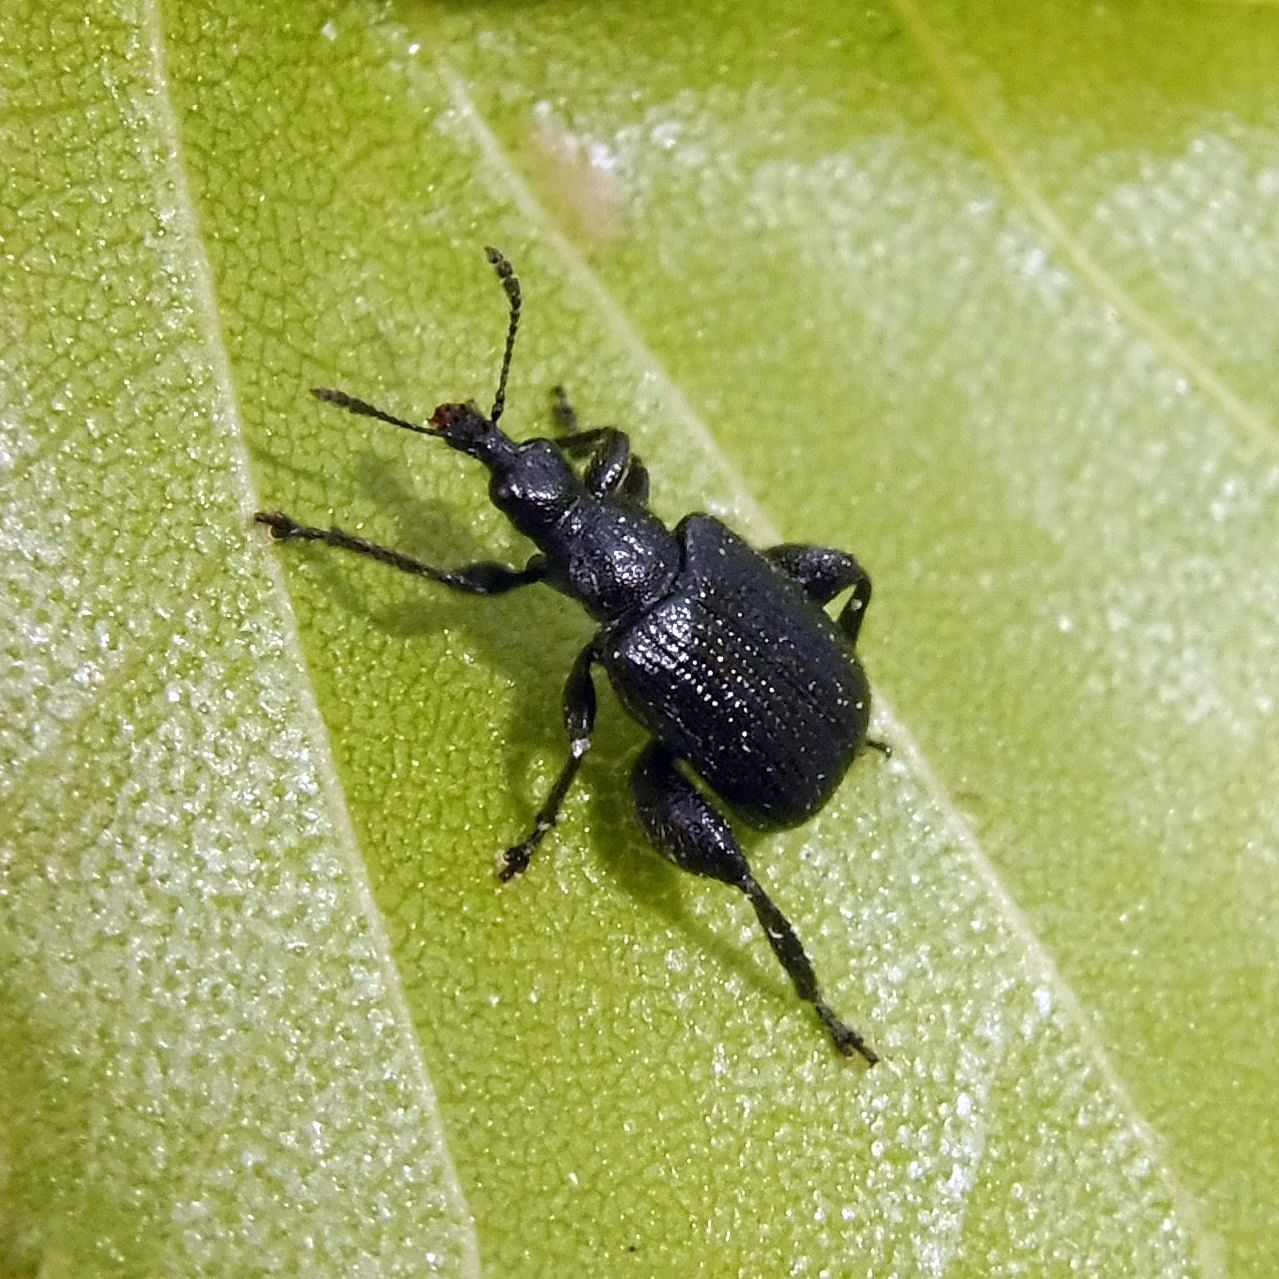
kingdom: Animalia
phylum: Arthropoda
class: Insecta
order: Coleoptera
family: Attelabidae
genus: Deporaus
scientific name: Deporaus betulae
